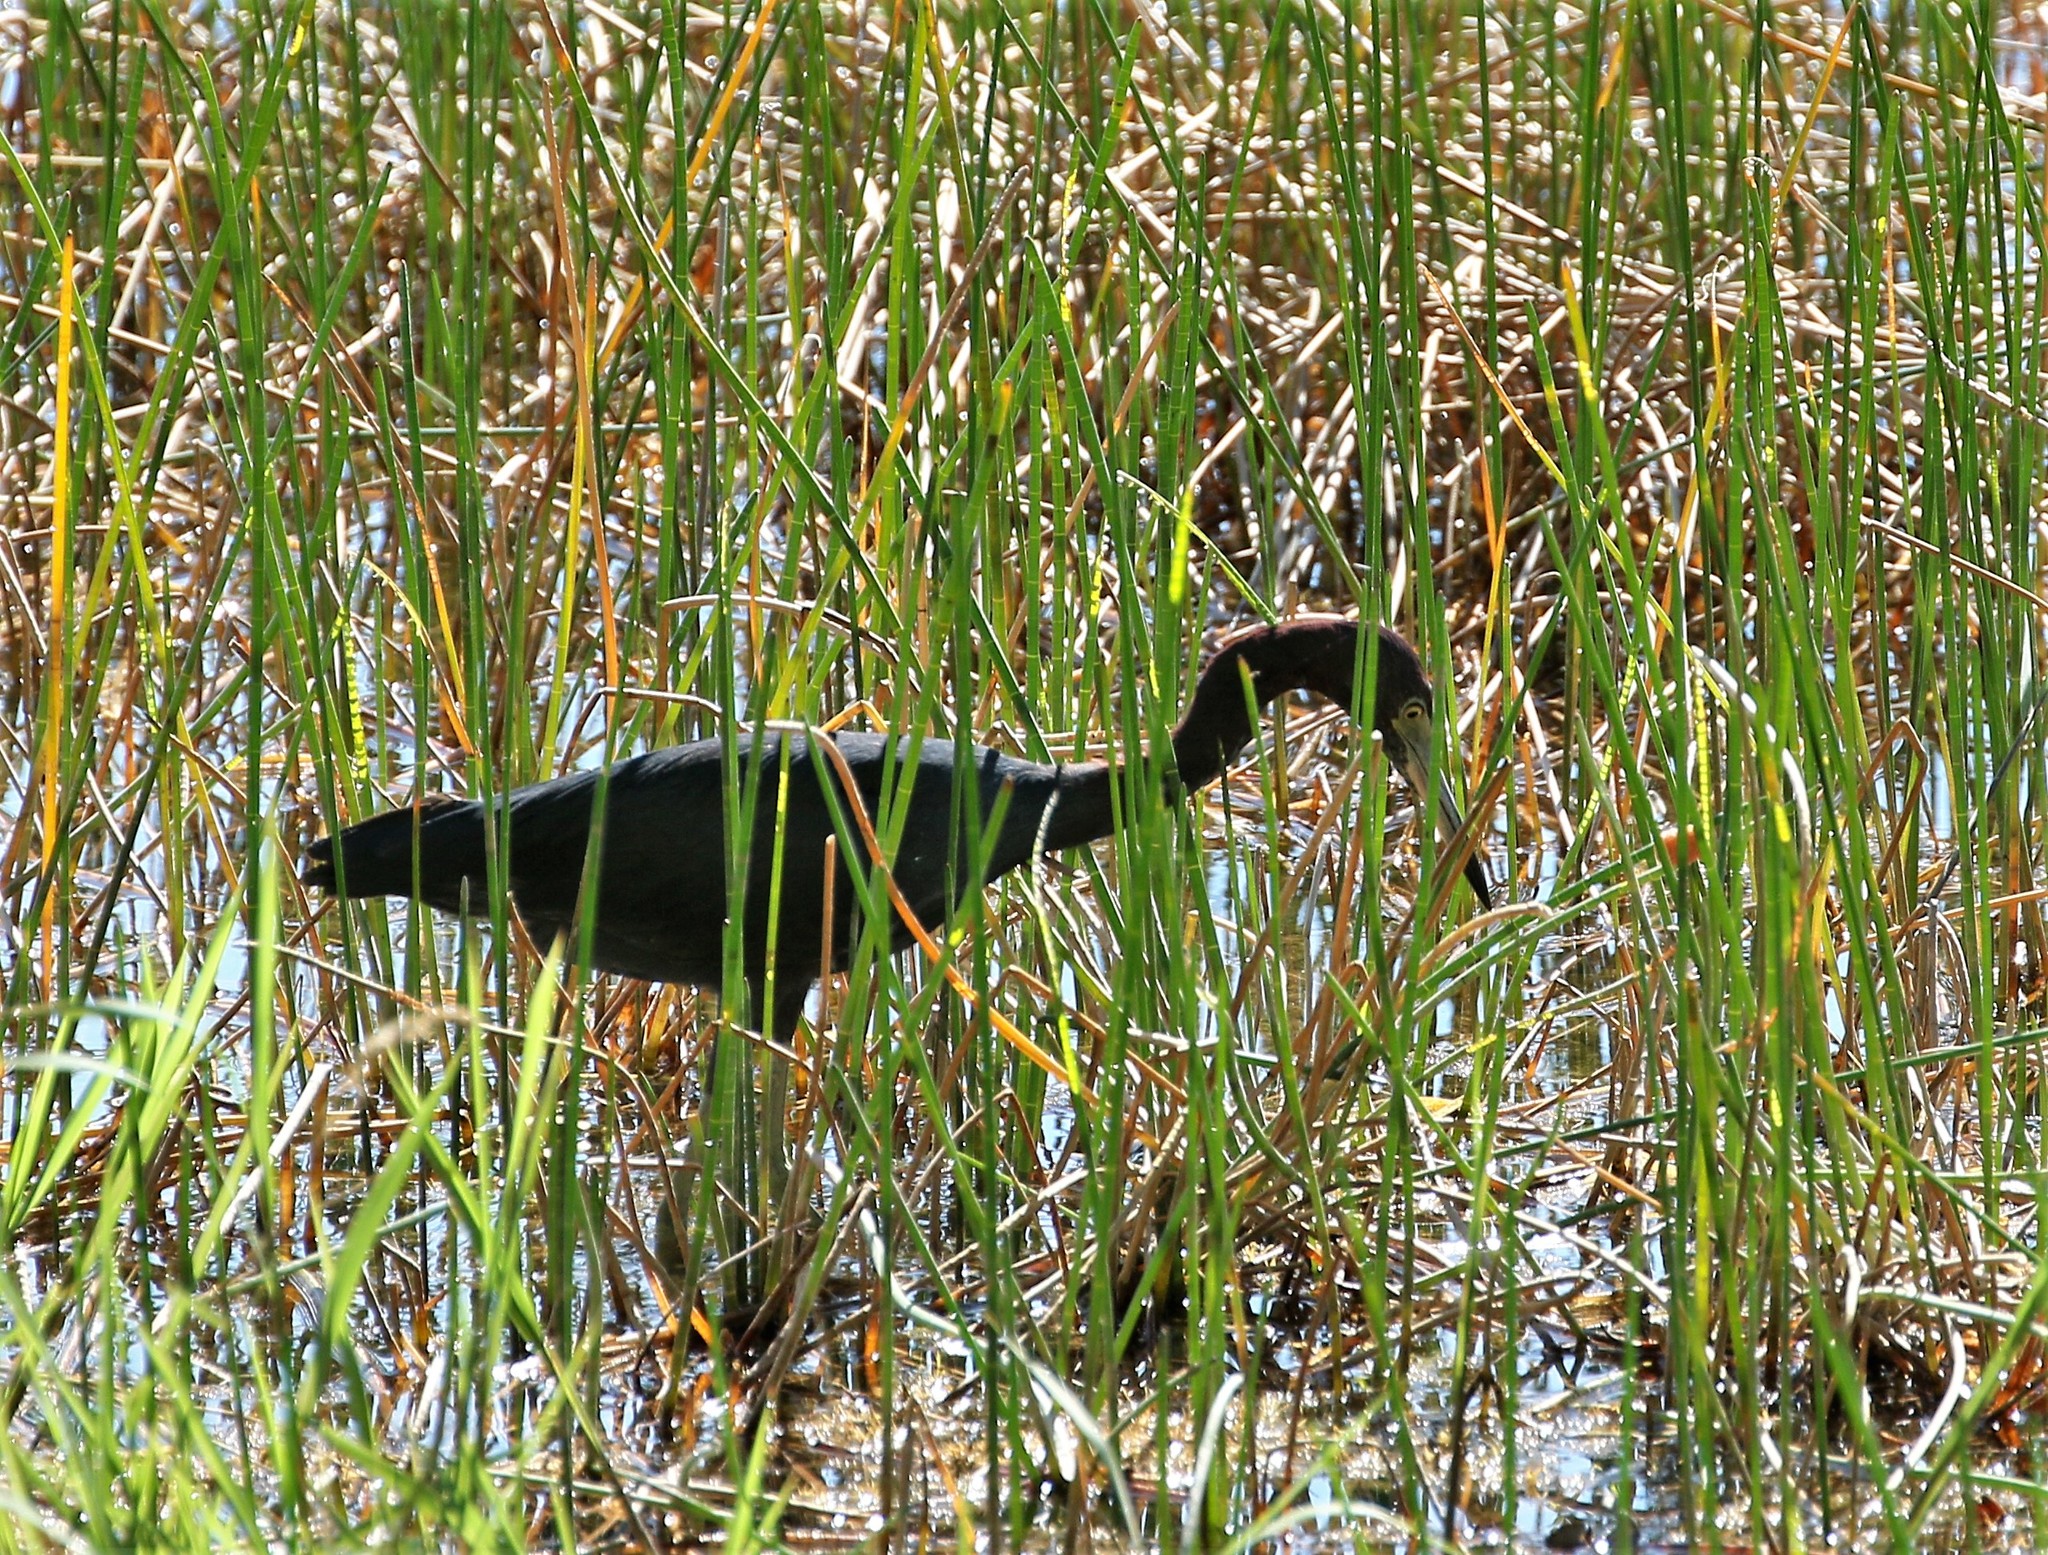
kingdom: Animalia
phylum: Chordata
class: Aves
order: Pelecaniformes
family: Ardeidae
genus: Egretta
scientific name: Egretta caerulea
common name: Little blue heron
